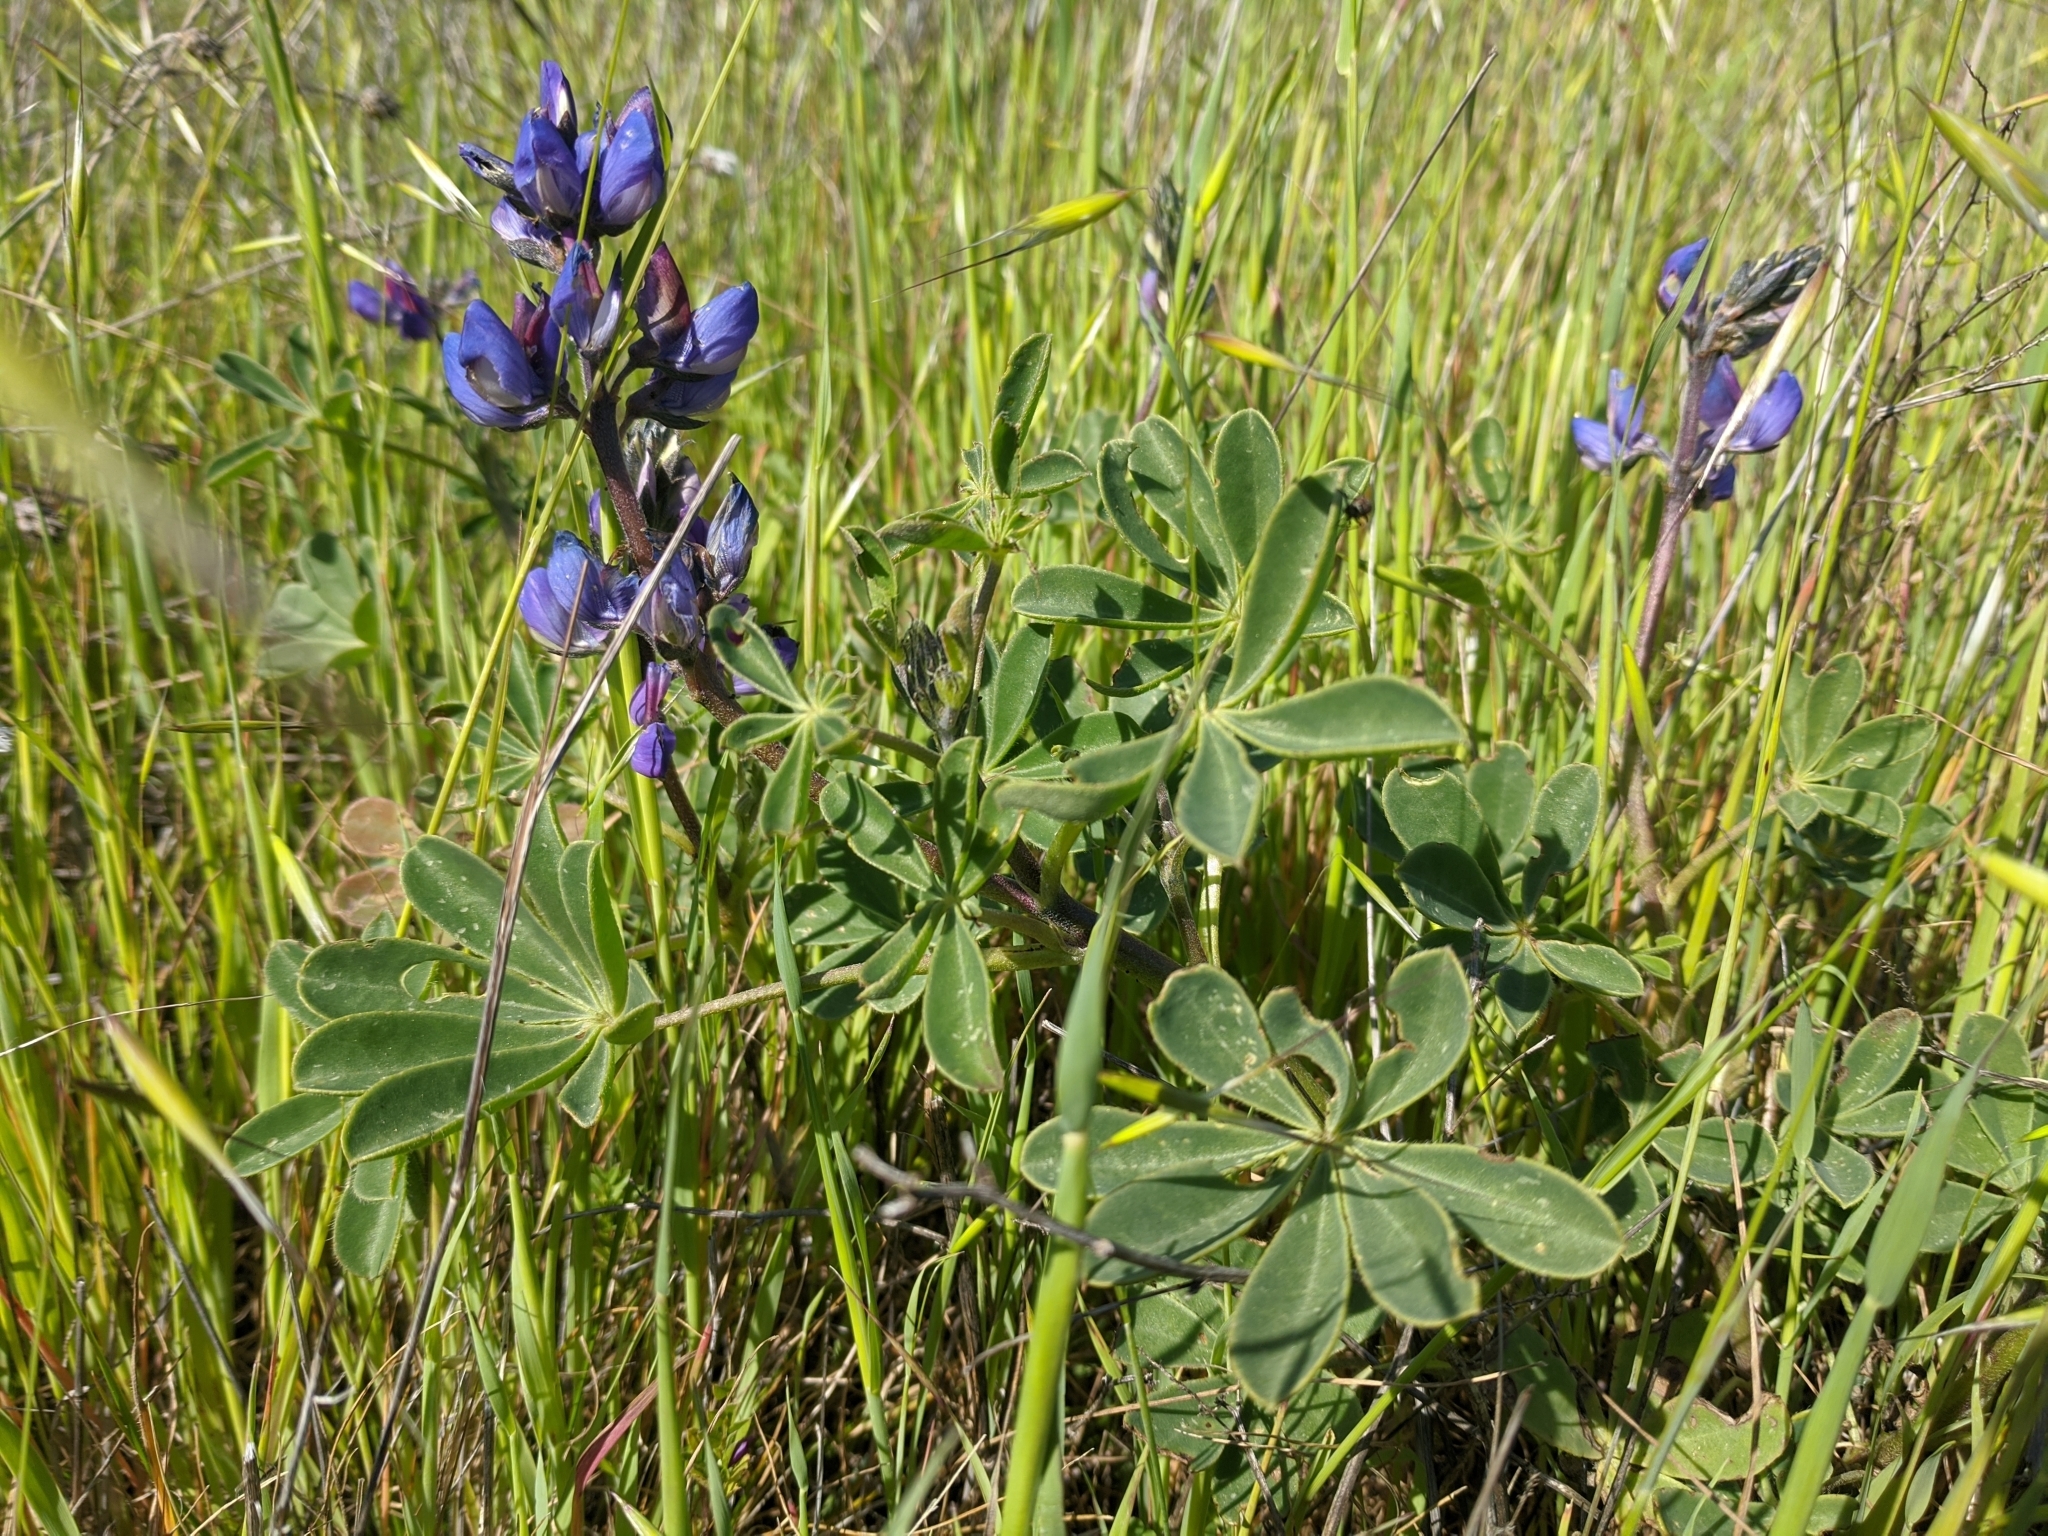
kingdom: Plantae
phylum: Tracheophyta
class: Magnoliopsida
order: Fabales
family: Fabaceae
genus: Lupinus
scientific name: Lupinus succulentus
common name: Arroyo lupine
